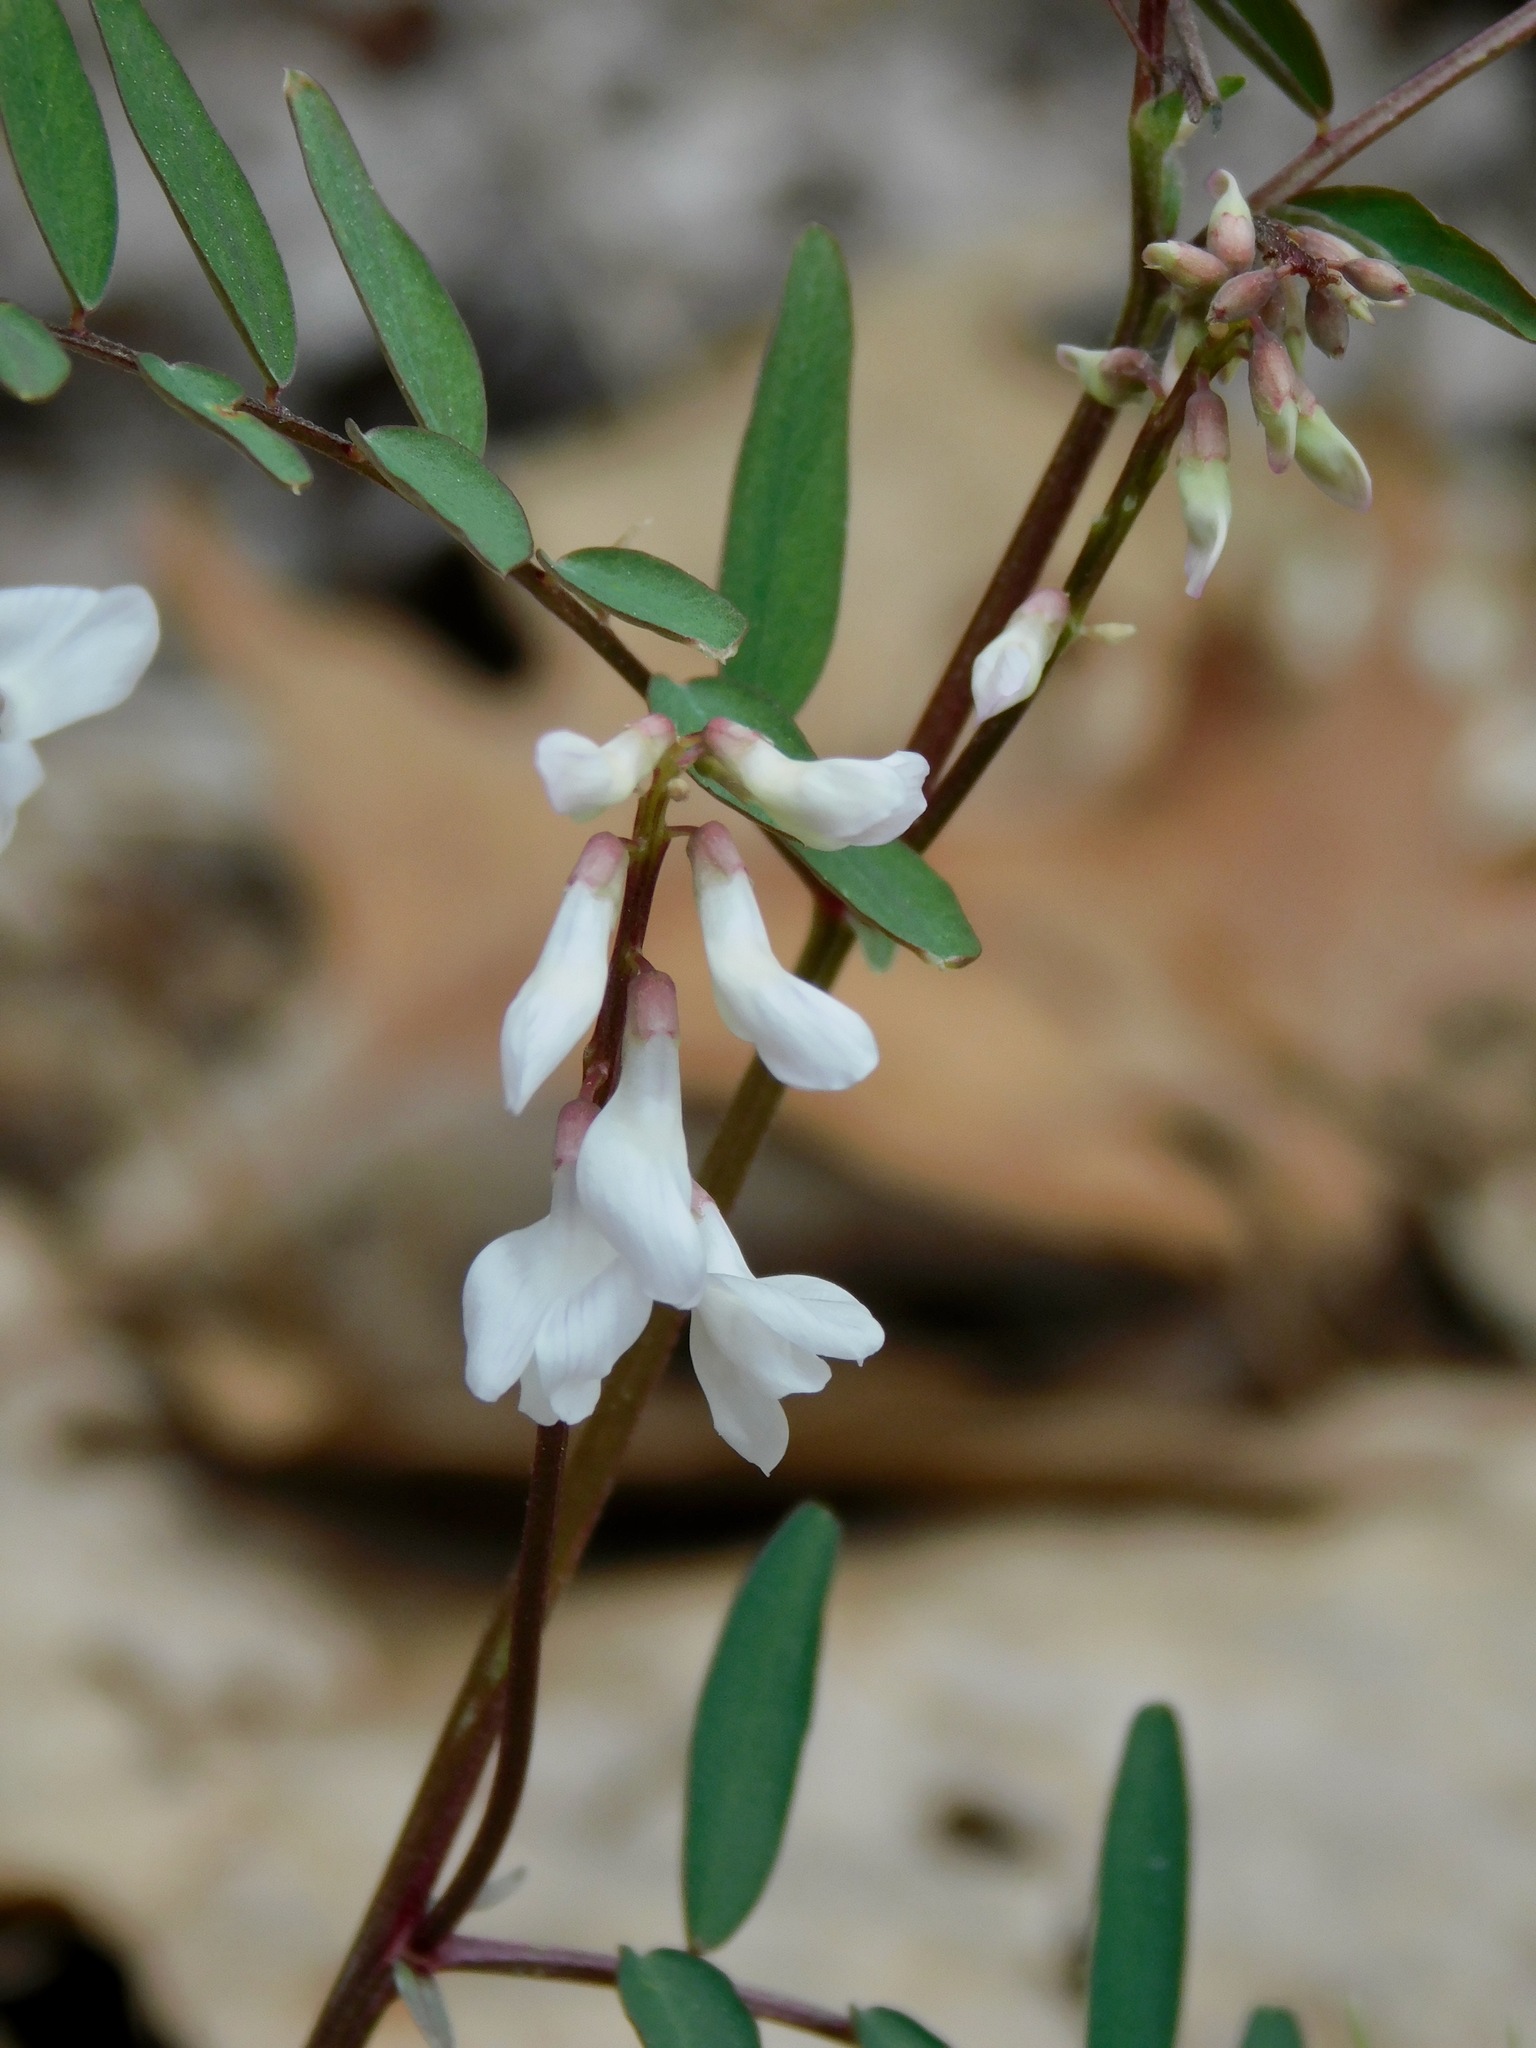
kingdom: Plantae
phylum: Tracheophyta
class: Magnoliopsida
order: Fabales
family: Fabaceae
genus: Vicia
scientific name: Vicia caroliniana
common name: Carolina vetch
